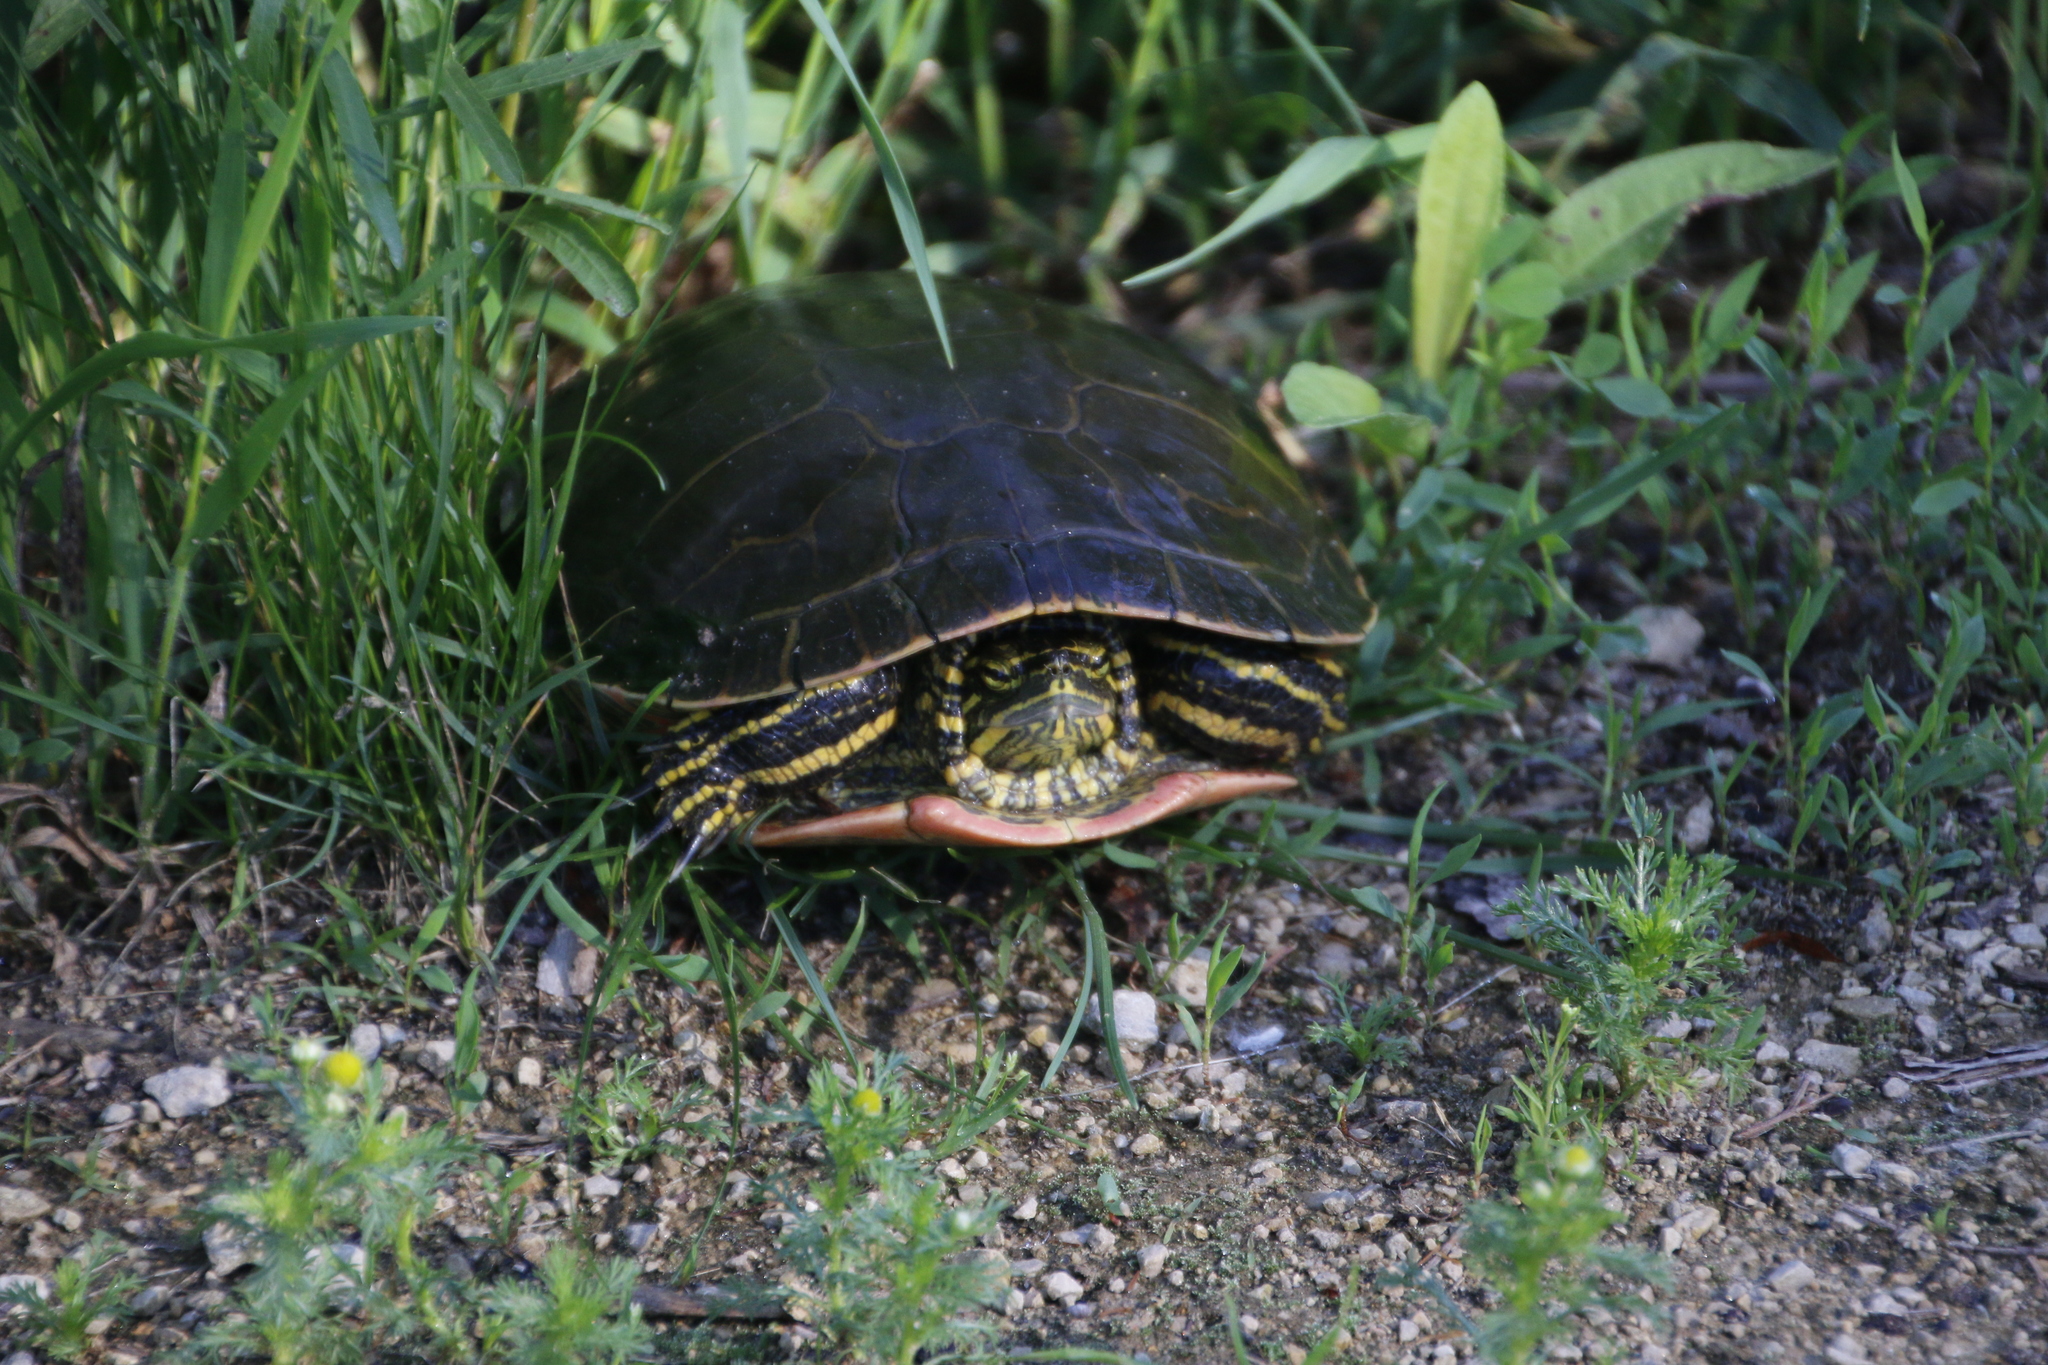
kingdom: Animalia
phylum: Chordata
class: Testudines
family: Emydidae
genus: Chrysemys
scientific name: Chrysemys picta
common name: Painted turtle
